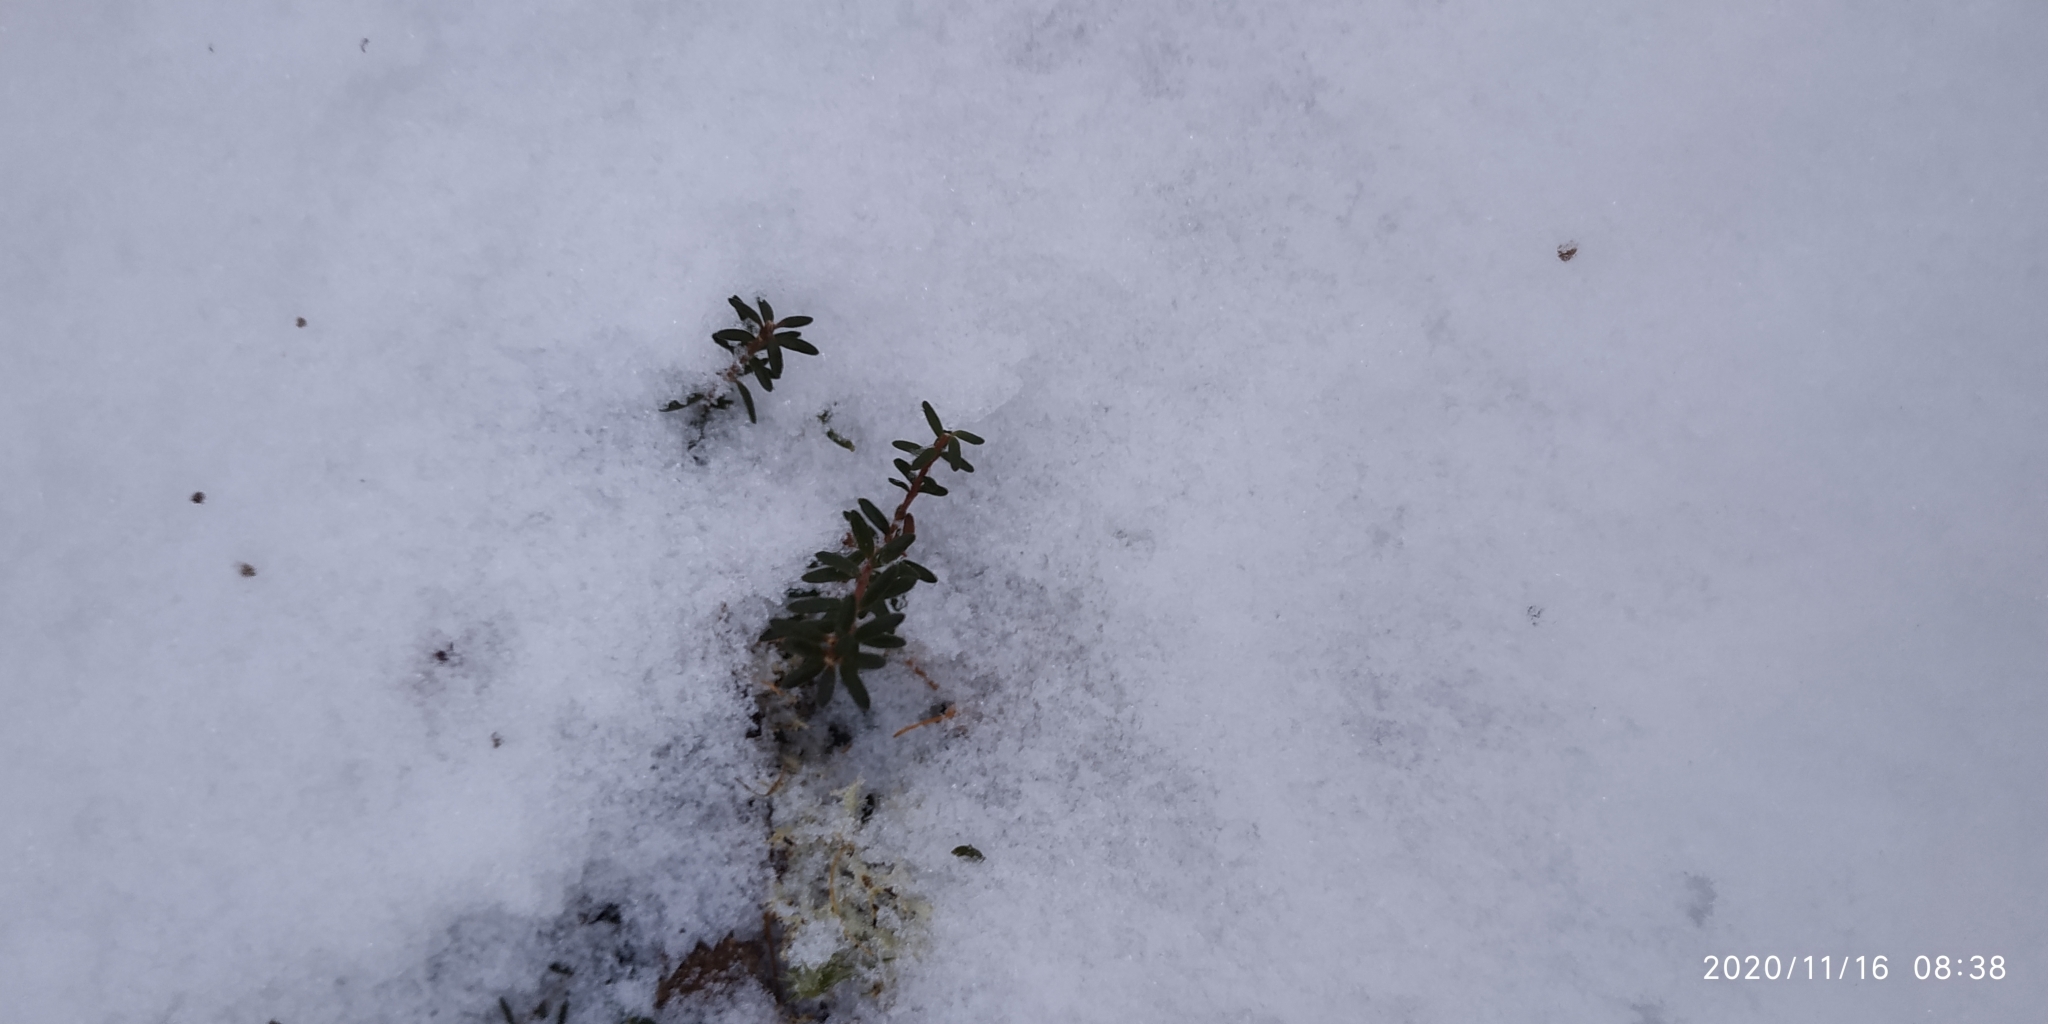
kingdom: Plantae
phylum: Tracheophyta
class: Magnoliopsida
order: Ericales
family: Ericaceae
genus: Empetrum
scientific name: Empetrum nigrum
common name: Black crowberry
